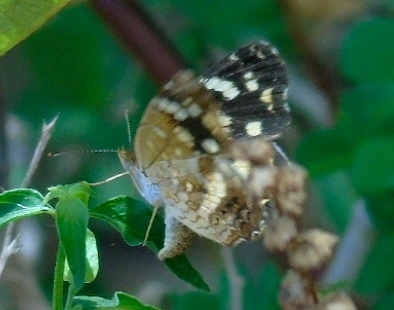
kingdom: Animalia
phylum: Arthropoda
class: Insecta
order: Lepidoptera
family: Nymphalidae
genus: Anthanassa
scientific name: Anthanassa tulcis
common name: Pale-banded crescent
